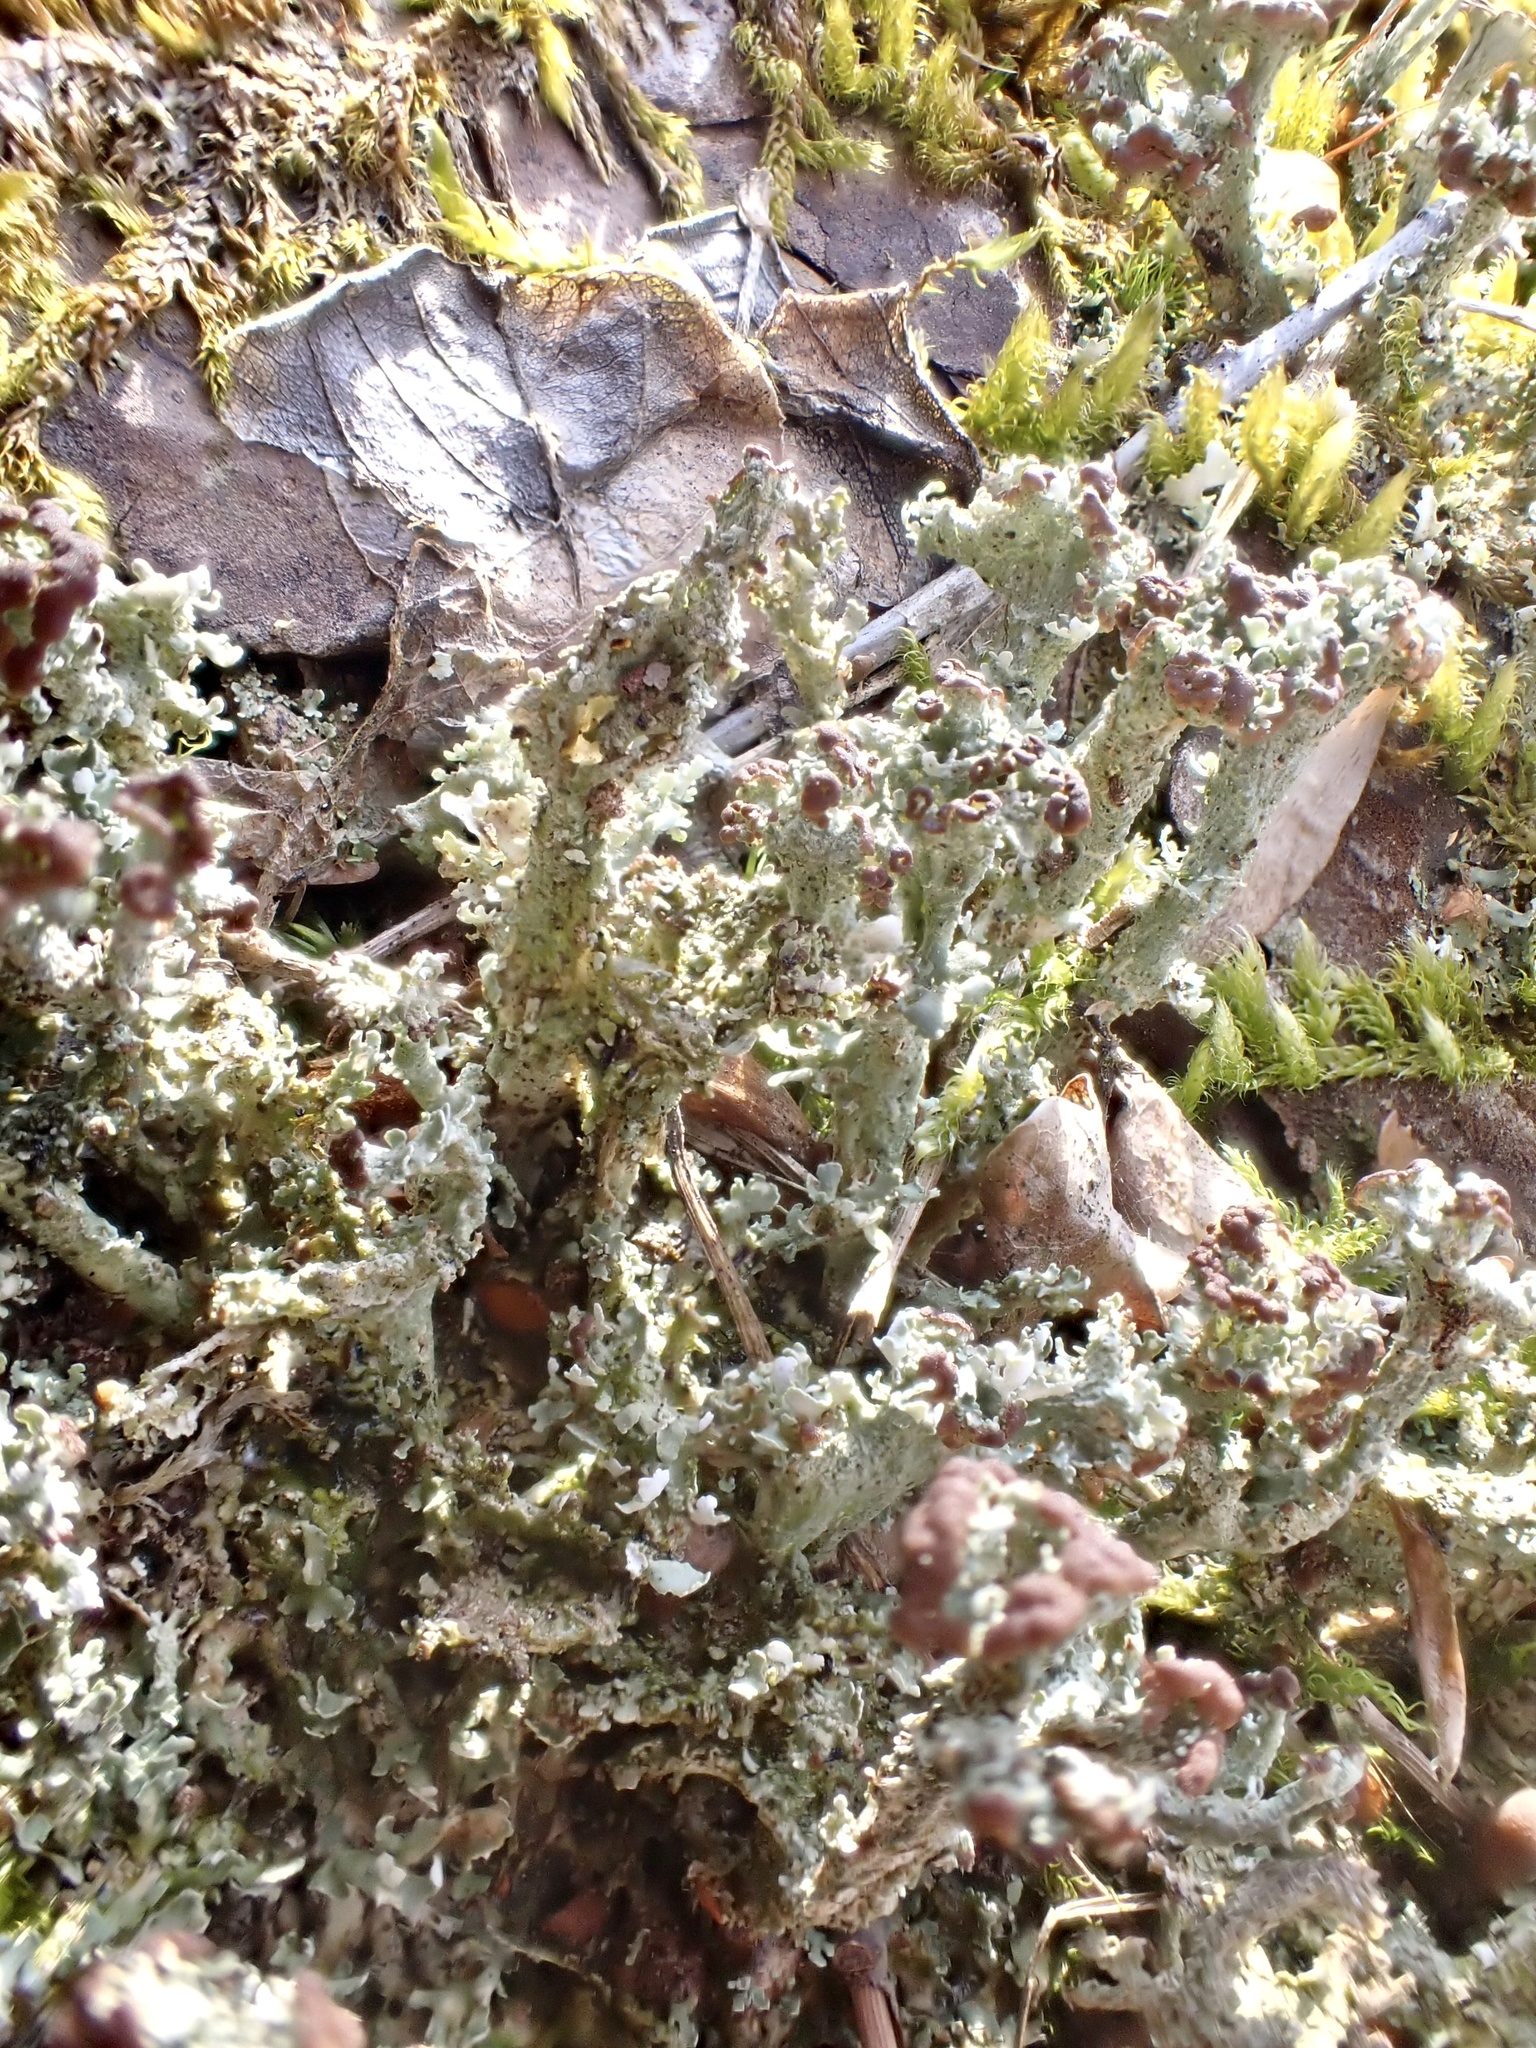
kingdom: Fungi
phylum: Ascomycota
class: Lecanoromycetes
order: Lecanorales
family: Cladoniaceae
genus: Cladonia
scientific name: Cladonia ramulosa
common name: Branched pixie-cup lichen
